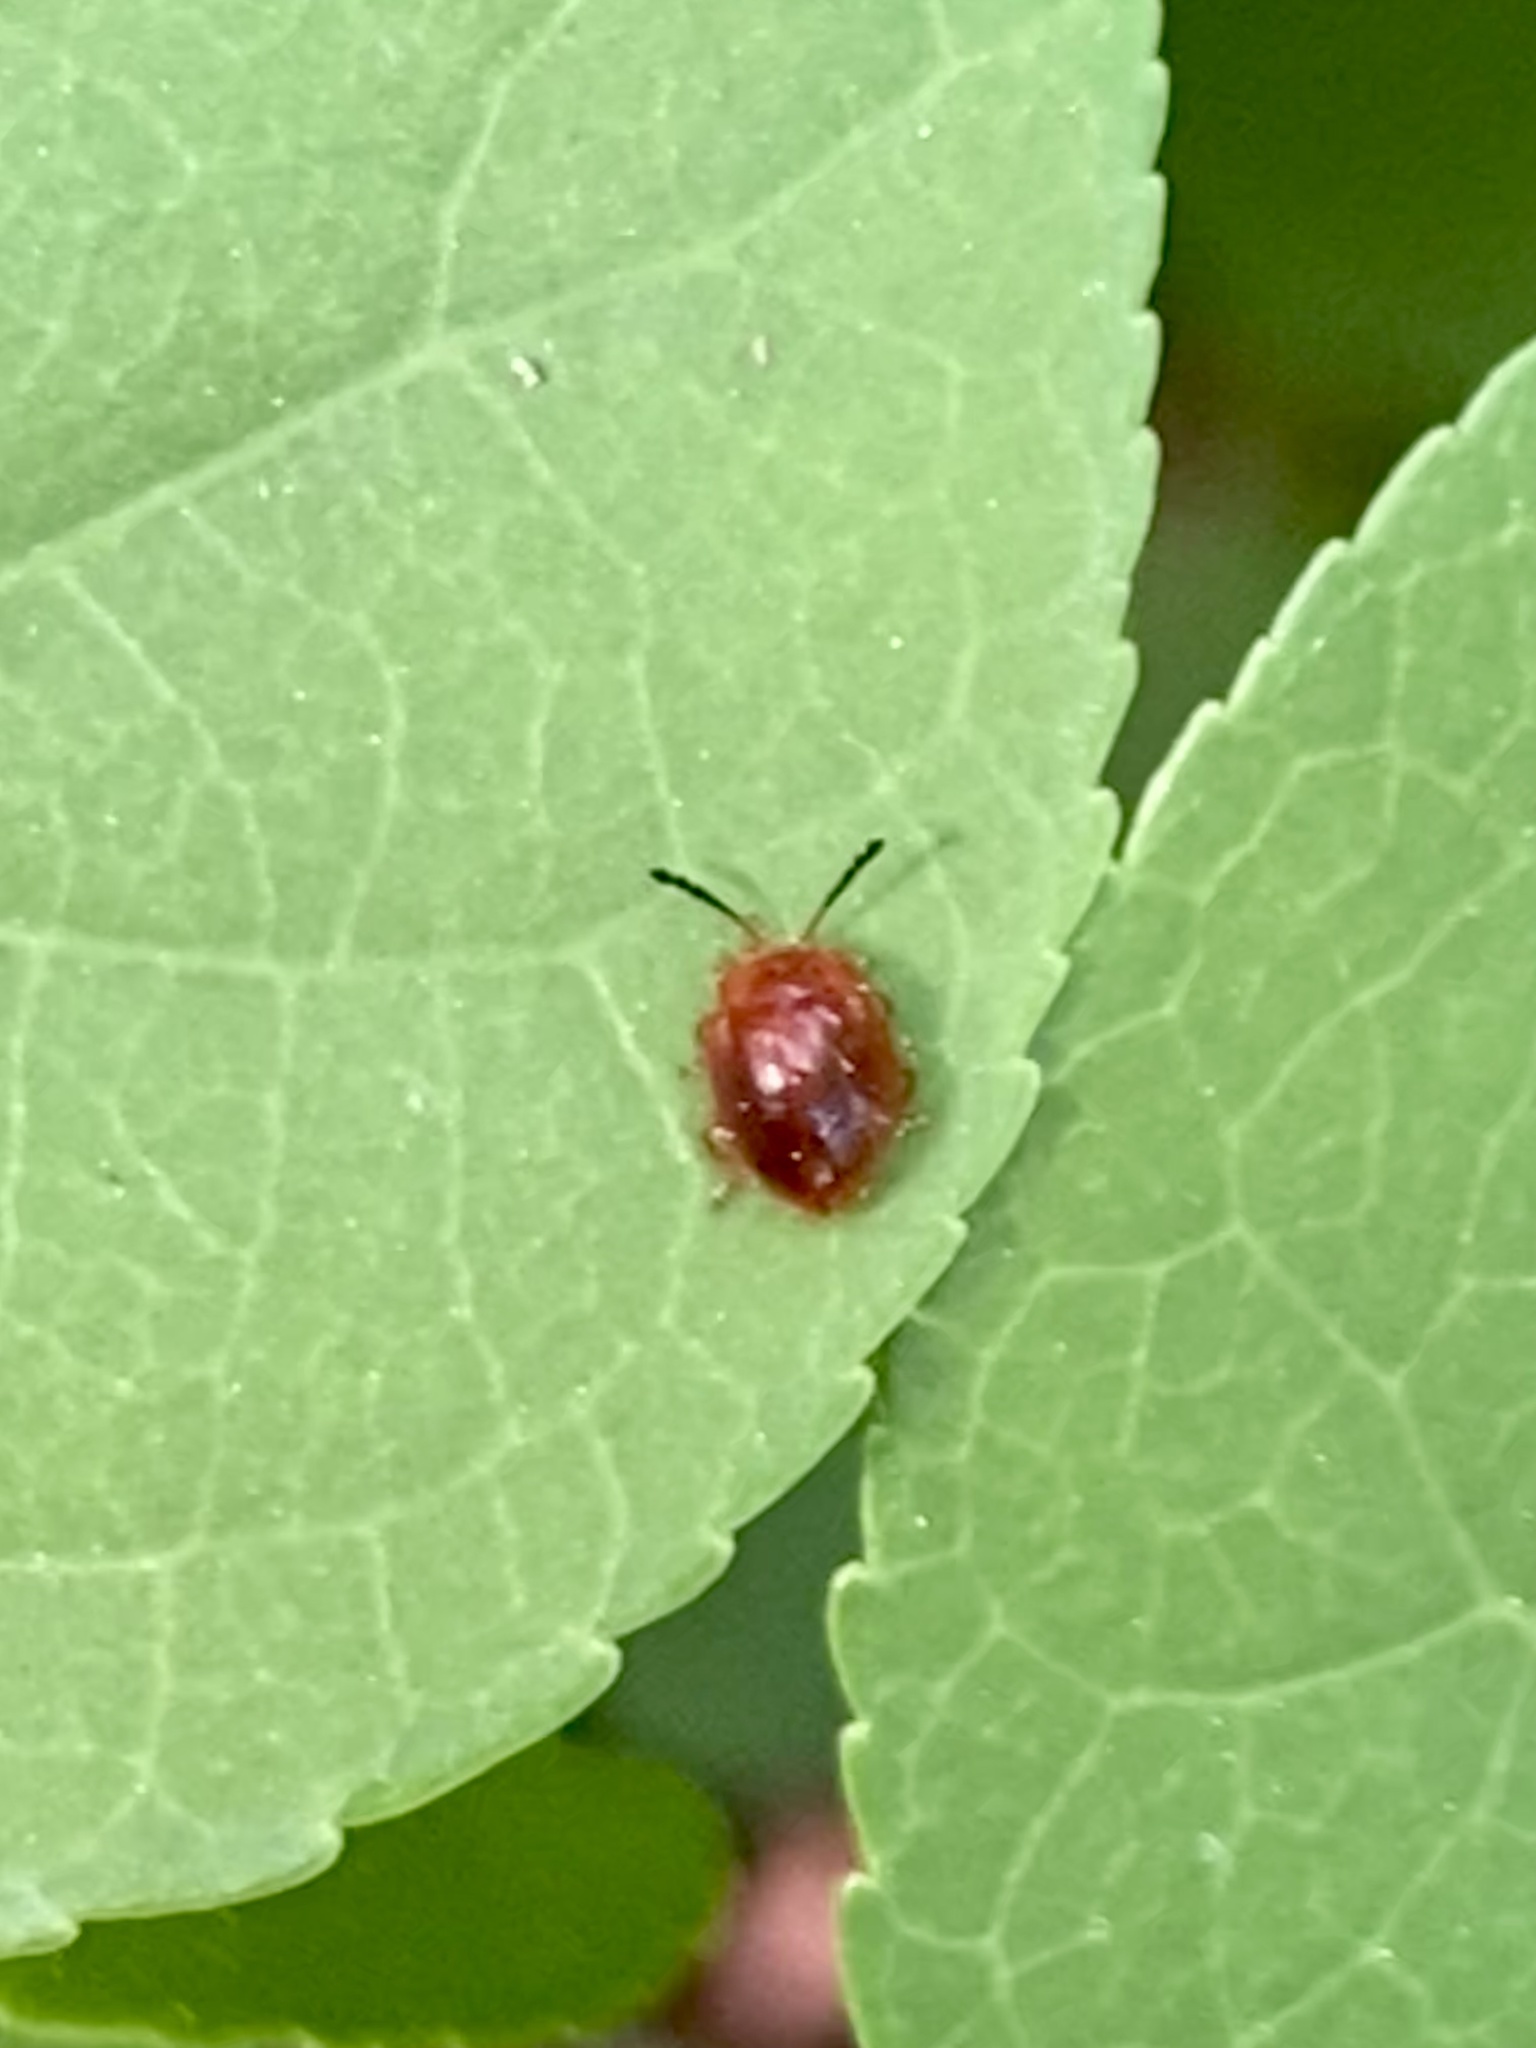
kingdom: Animalia
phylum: Arthropoda
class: Insecta
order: Coleoptera
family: Endomychidae
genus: Stenotarsus
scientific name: Stenotarsus blatchleyi
